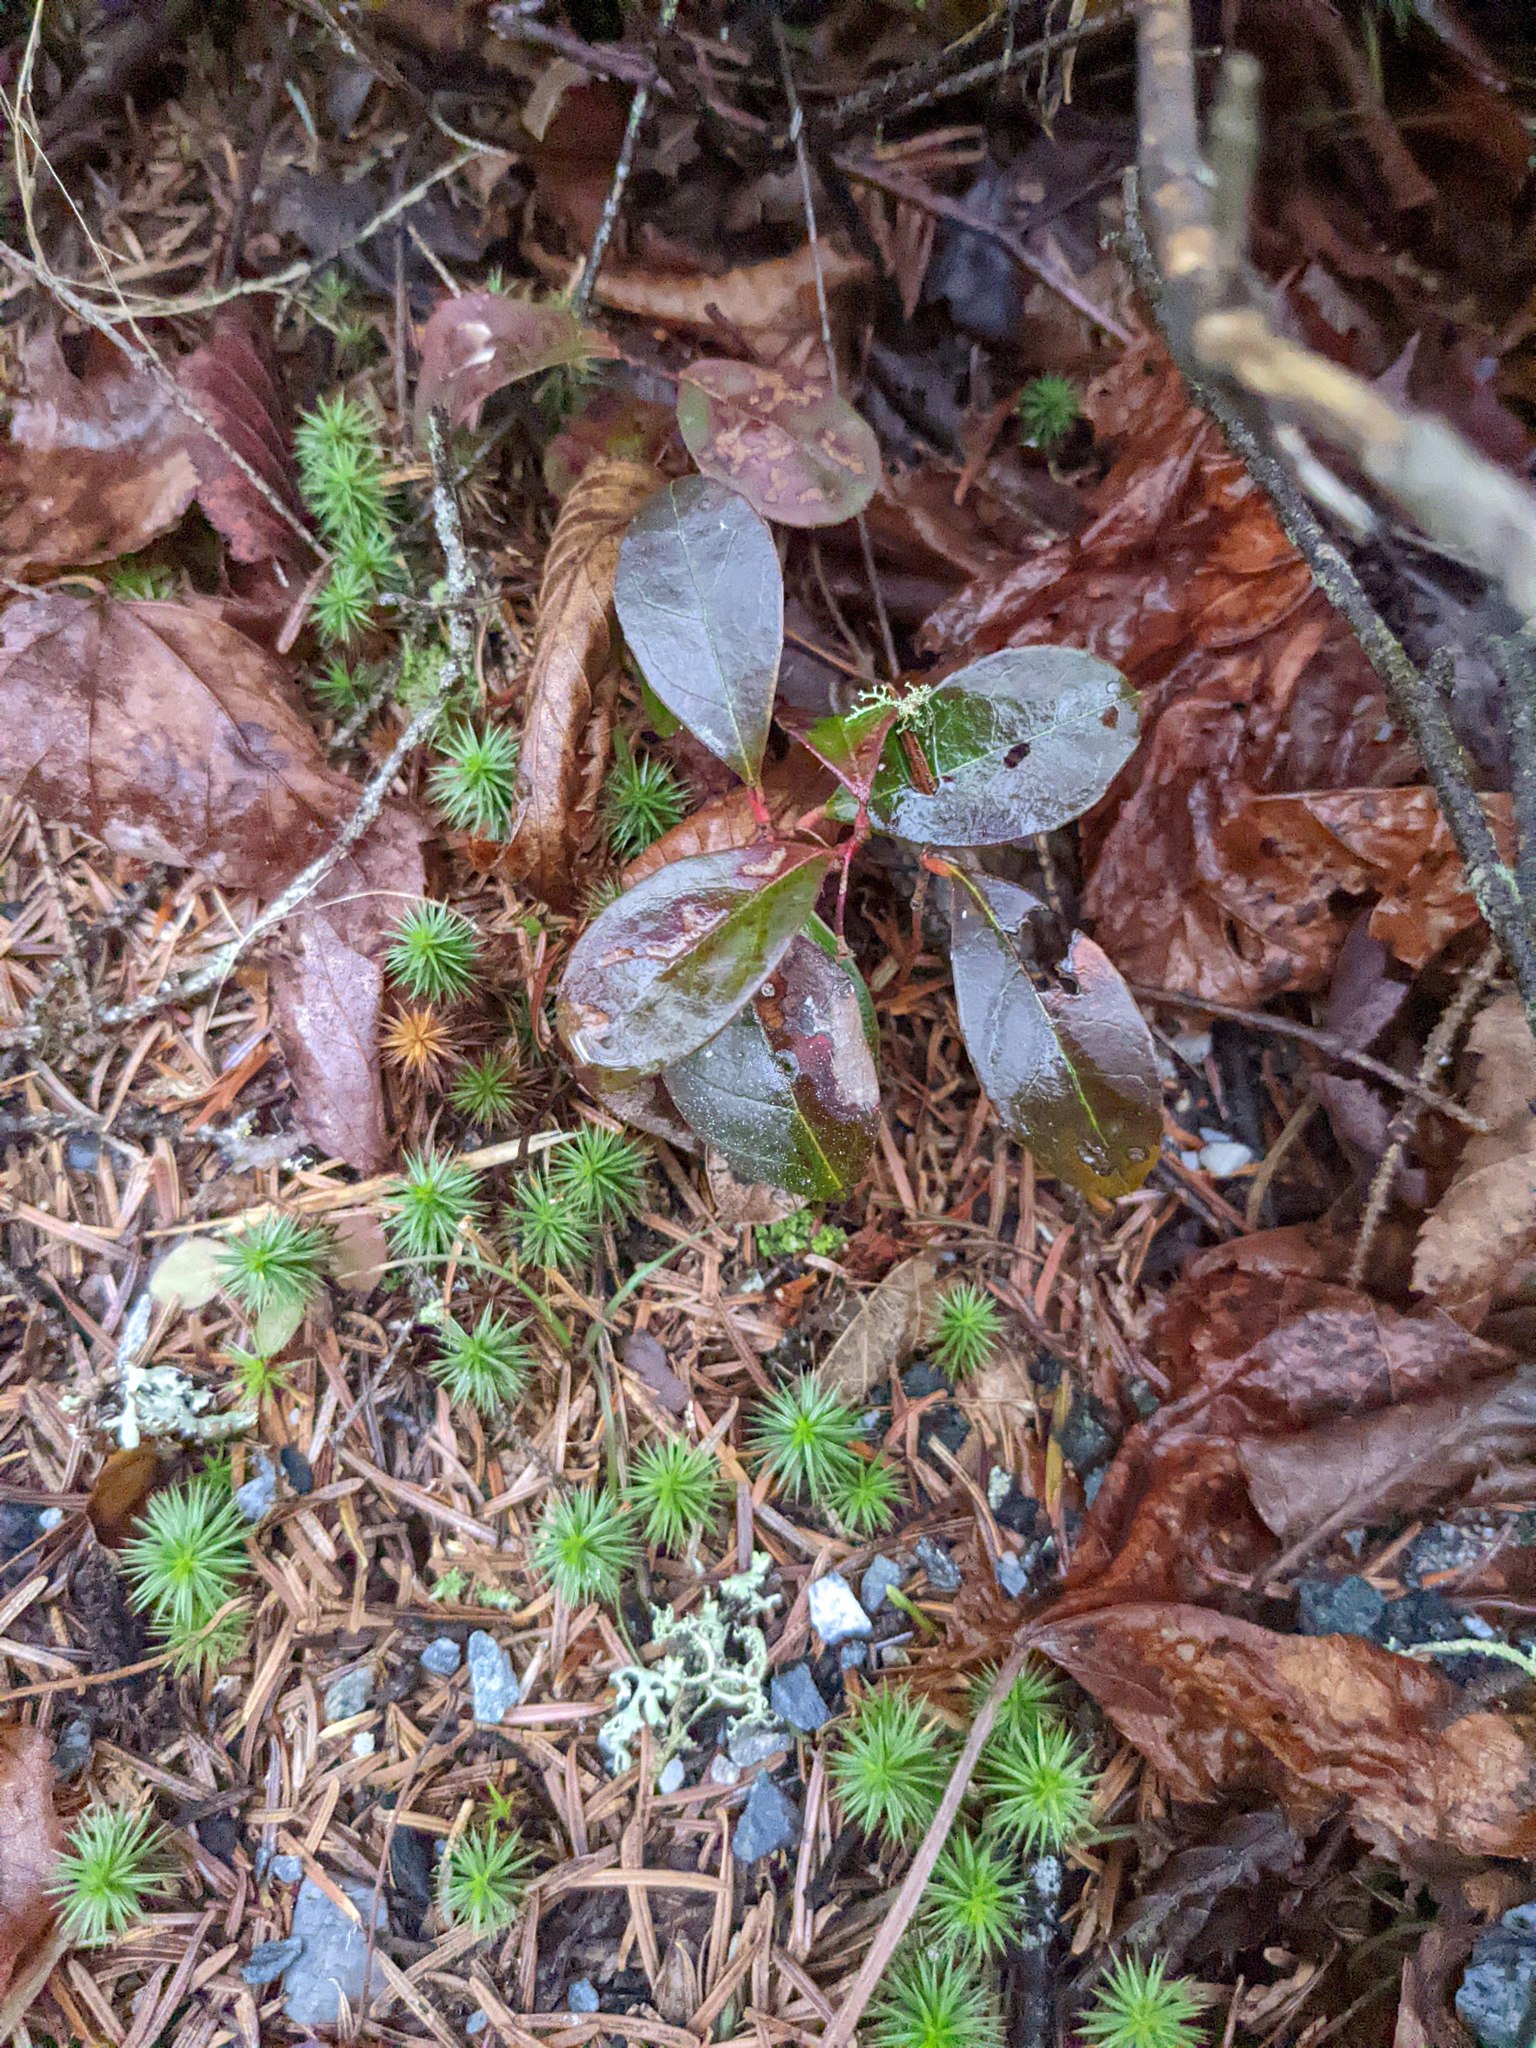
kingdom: Plantae
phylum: Tracheophyta
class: Magnoliopsida
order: Ericales
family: Ericaceae
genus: Gaultheria
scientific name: Gaultheria procumbens
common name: Checkerberry
